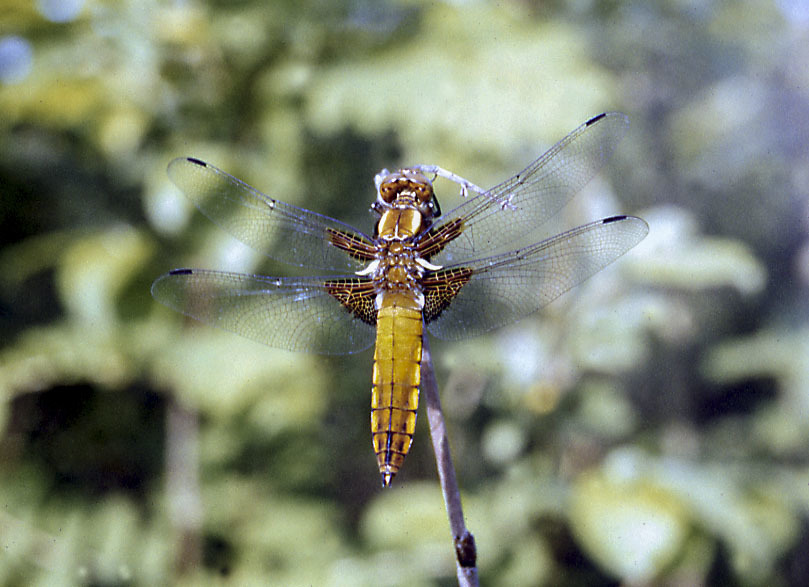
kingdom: Animalia
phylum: Arthropoda
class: Insecta
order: Odonata
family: Libellulidae
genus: Libellula
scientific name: Libellula depressa
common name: Broad-bodied chaser
